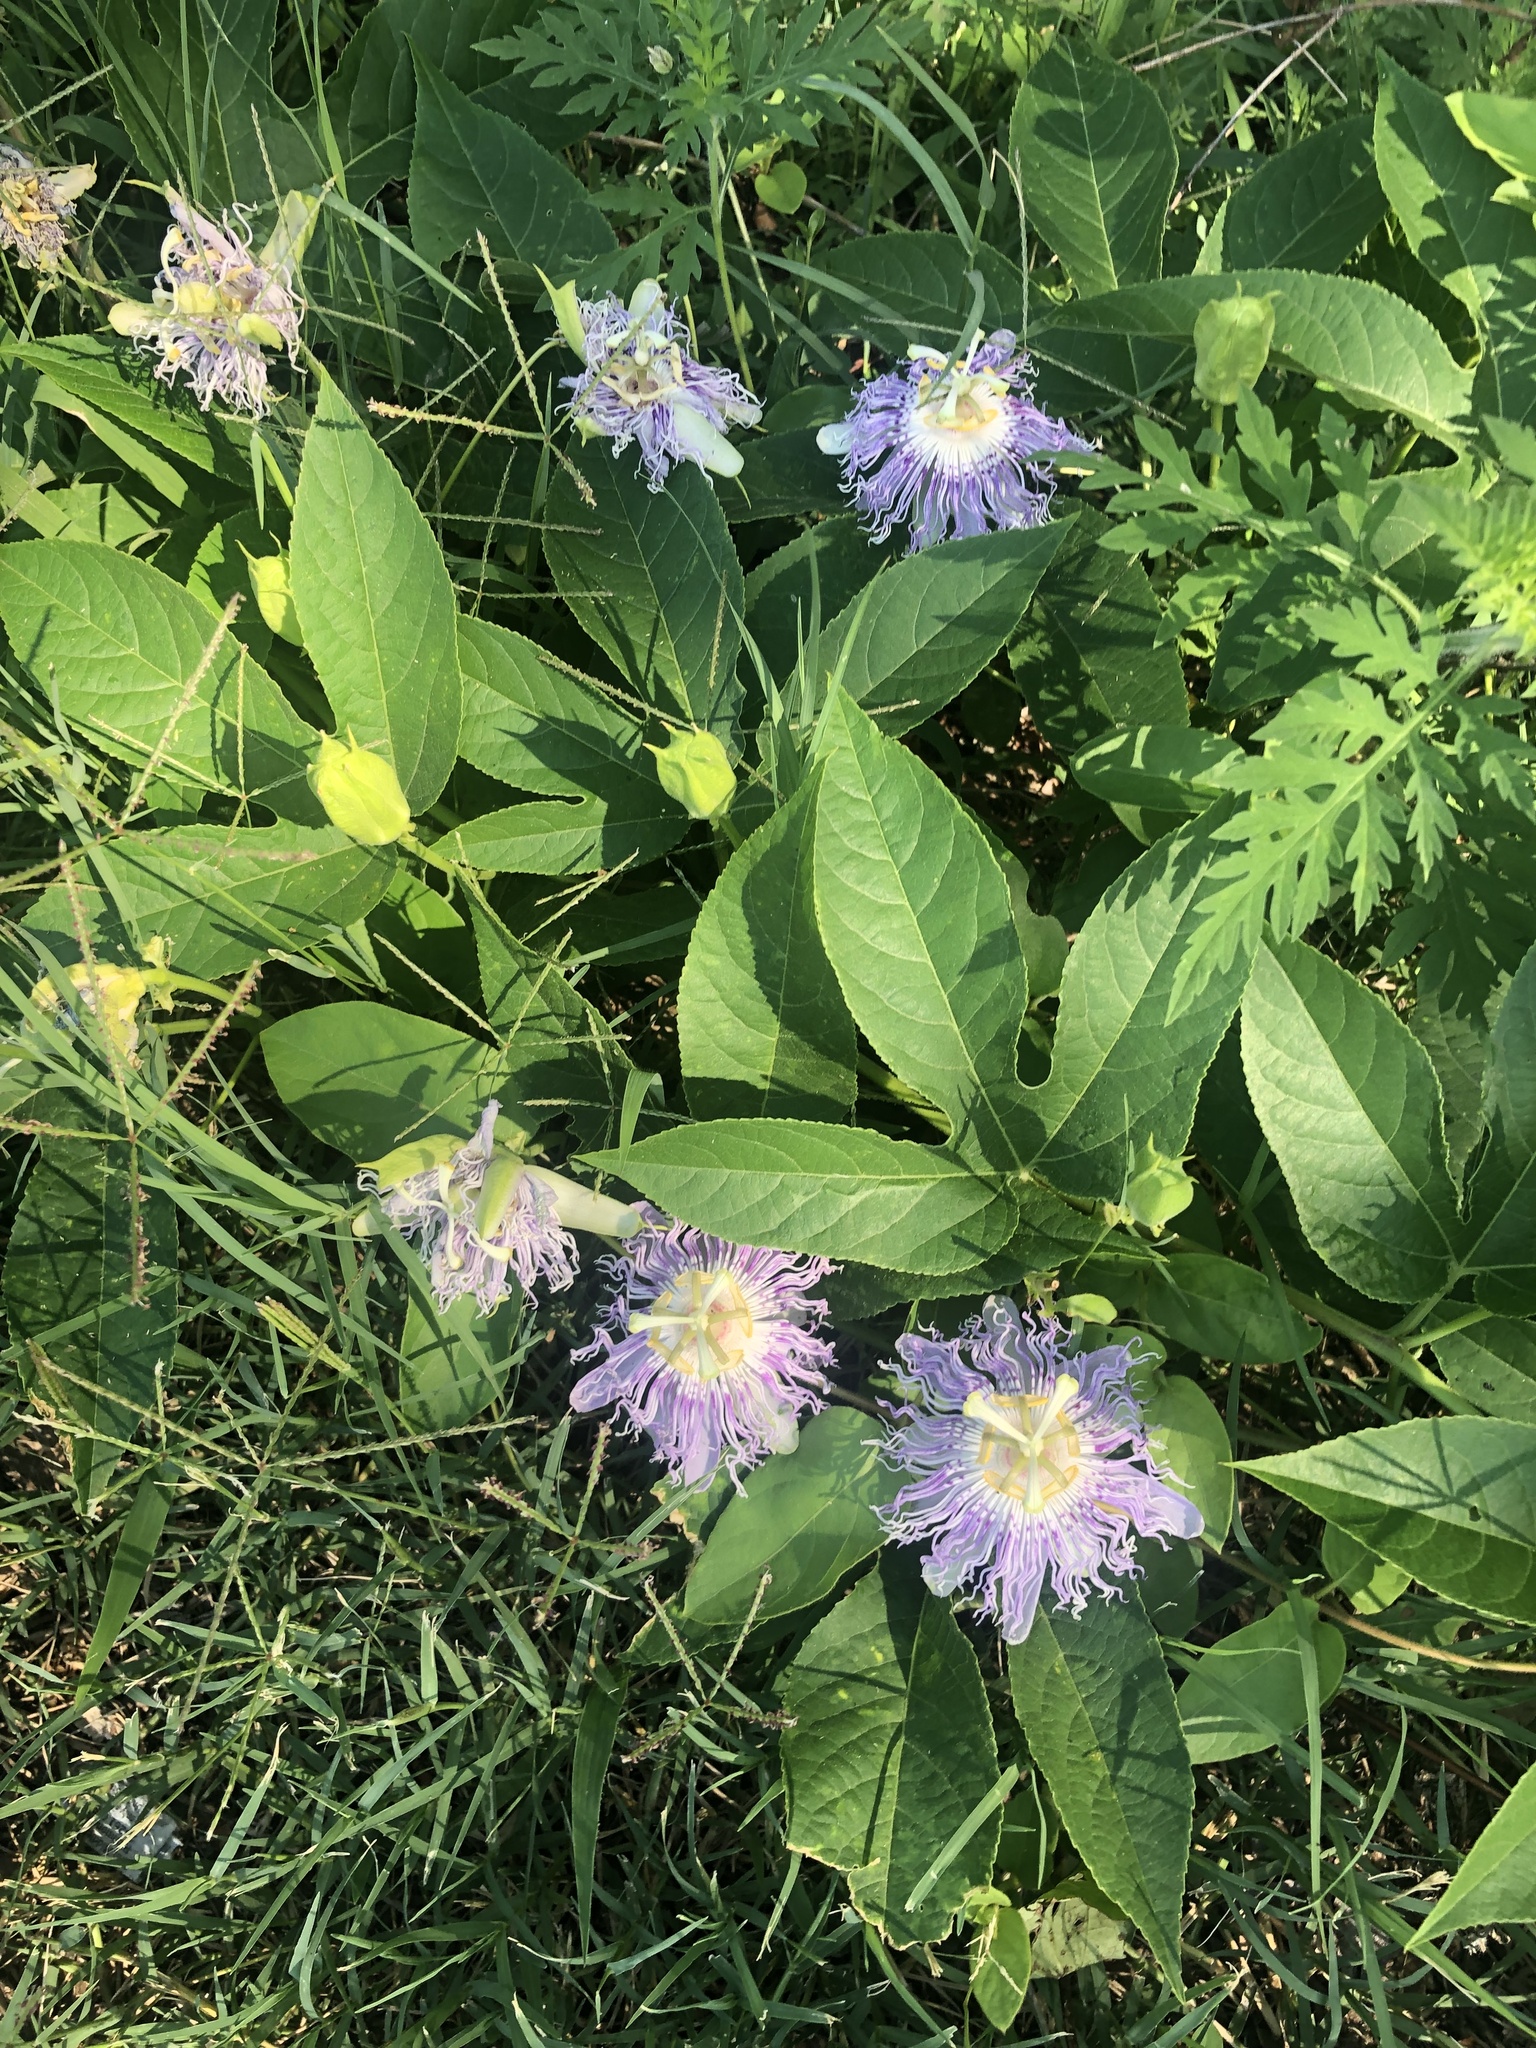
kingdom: Plantae
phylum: Tracheophyta
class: Magnoliopsida
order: Malpighiales
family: Passifloraceae
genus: Passiflora
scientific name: Passiflora incarnata
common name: Apricot-vine
